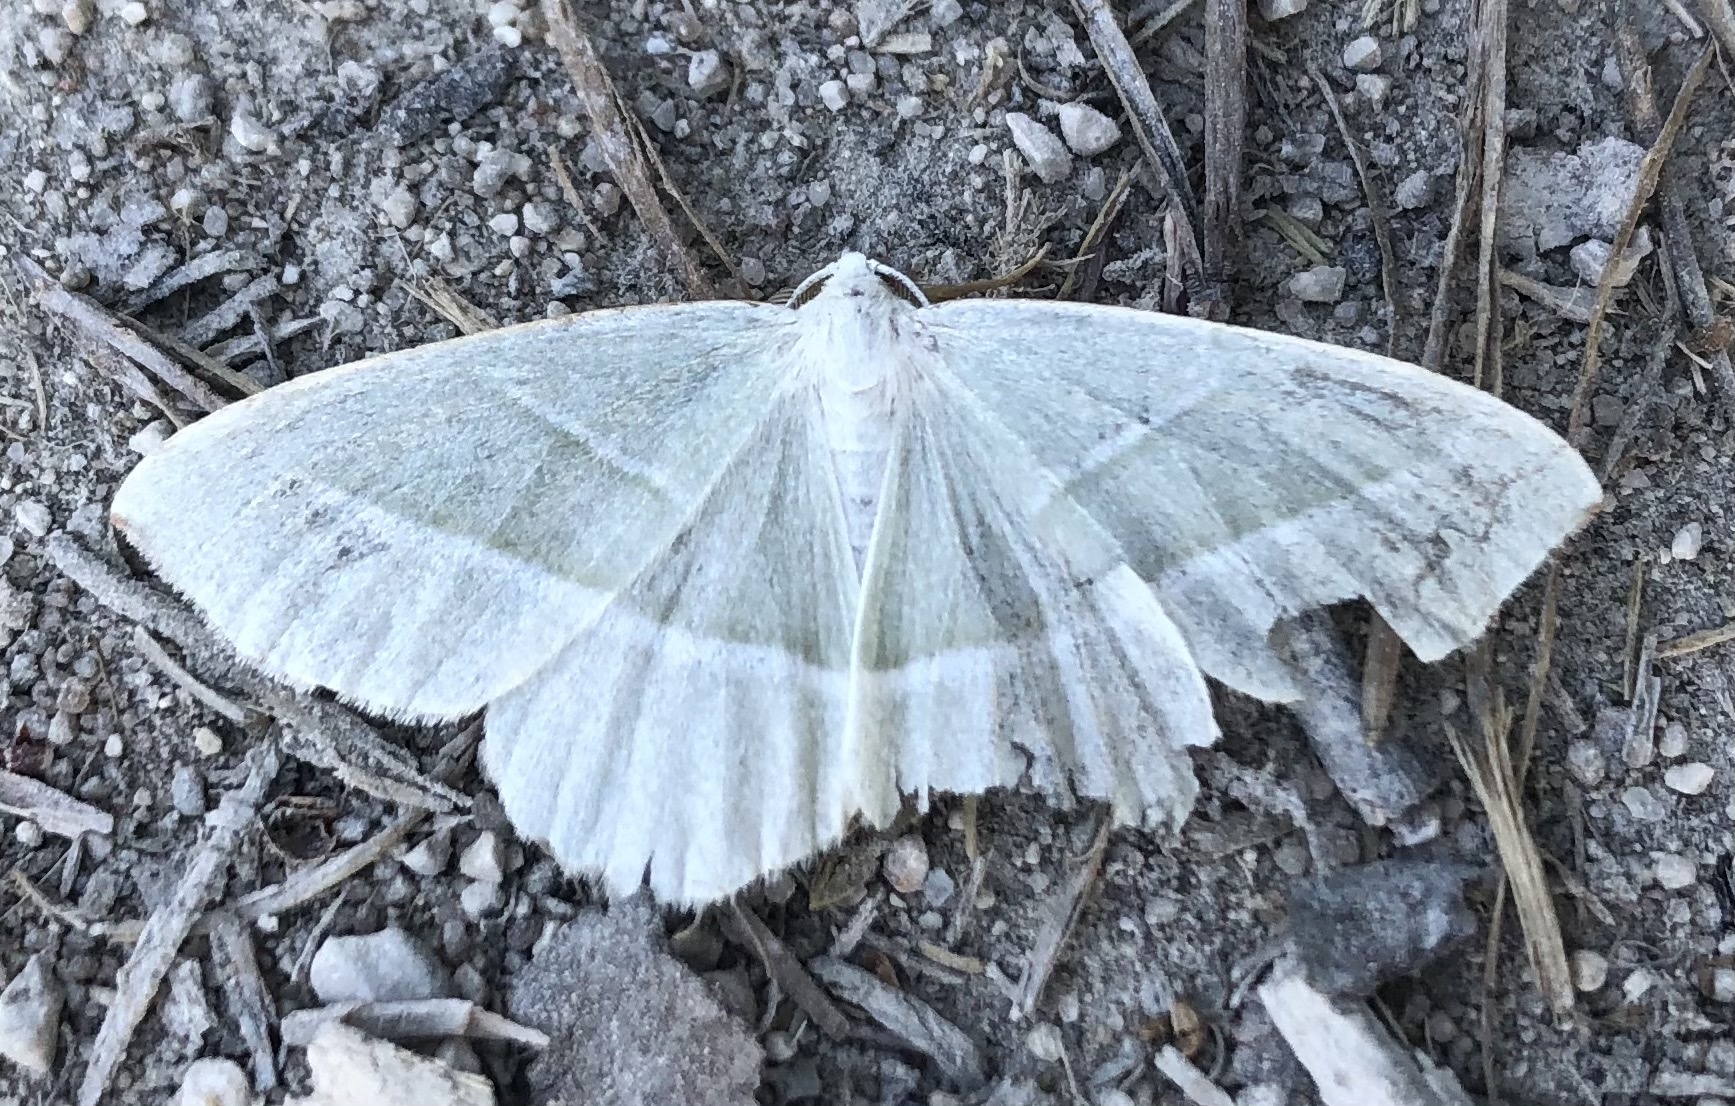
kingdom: Animalia
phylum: Arthropoda
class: Insecta
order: Lepidoptera
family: Geometridae
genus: Campaea
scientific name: Campaea margaritaria
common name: Light emerald
